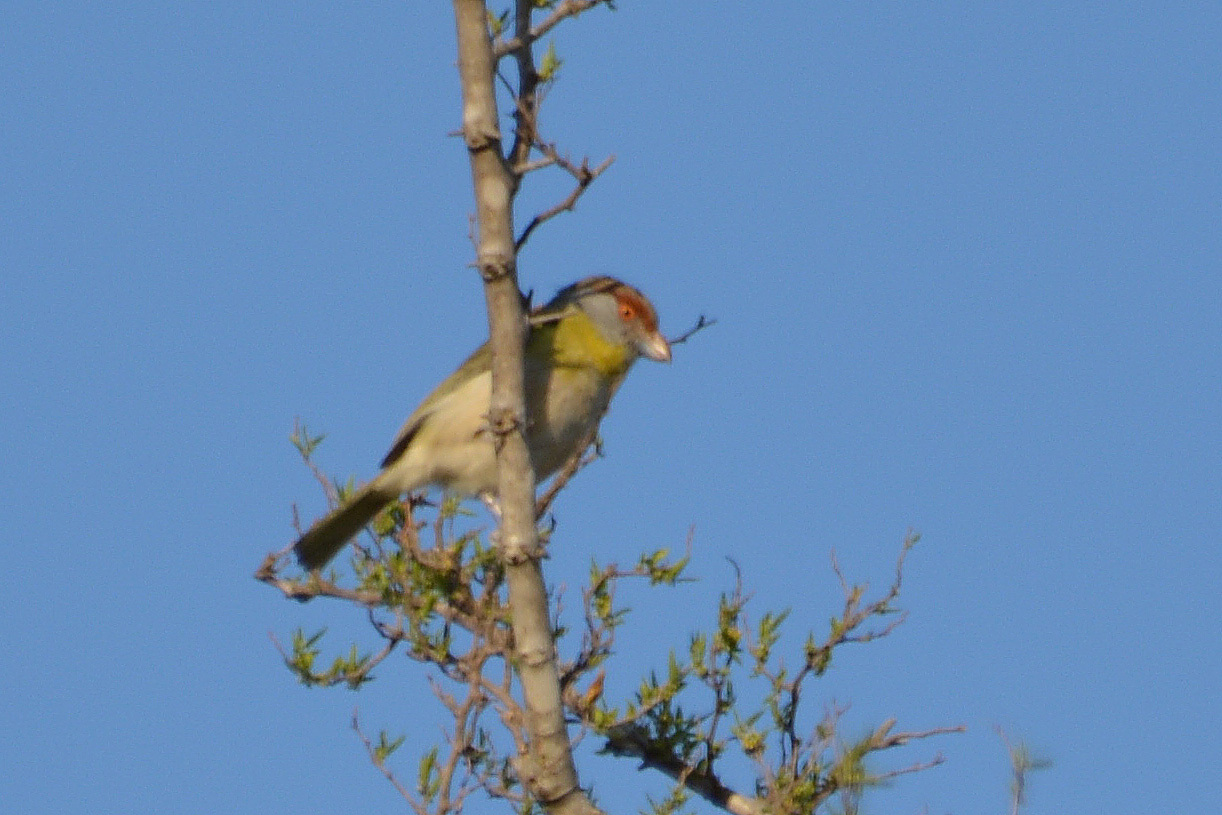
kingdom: Animalia
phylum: Chordata
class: Aves
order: Passeriformes
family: Vireonidae
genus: Cyclarhis
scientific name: Cyclarhis gujanensis
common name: Rufous-browed peppershrike
